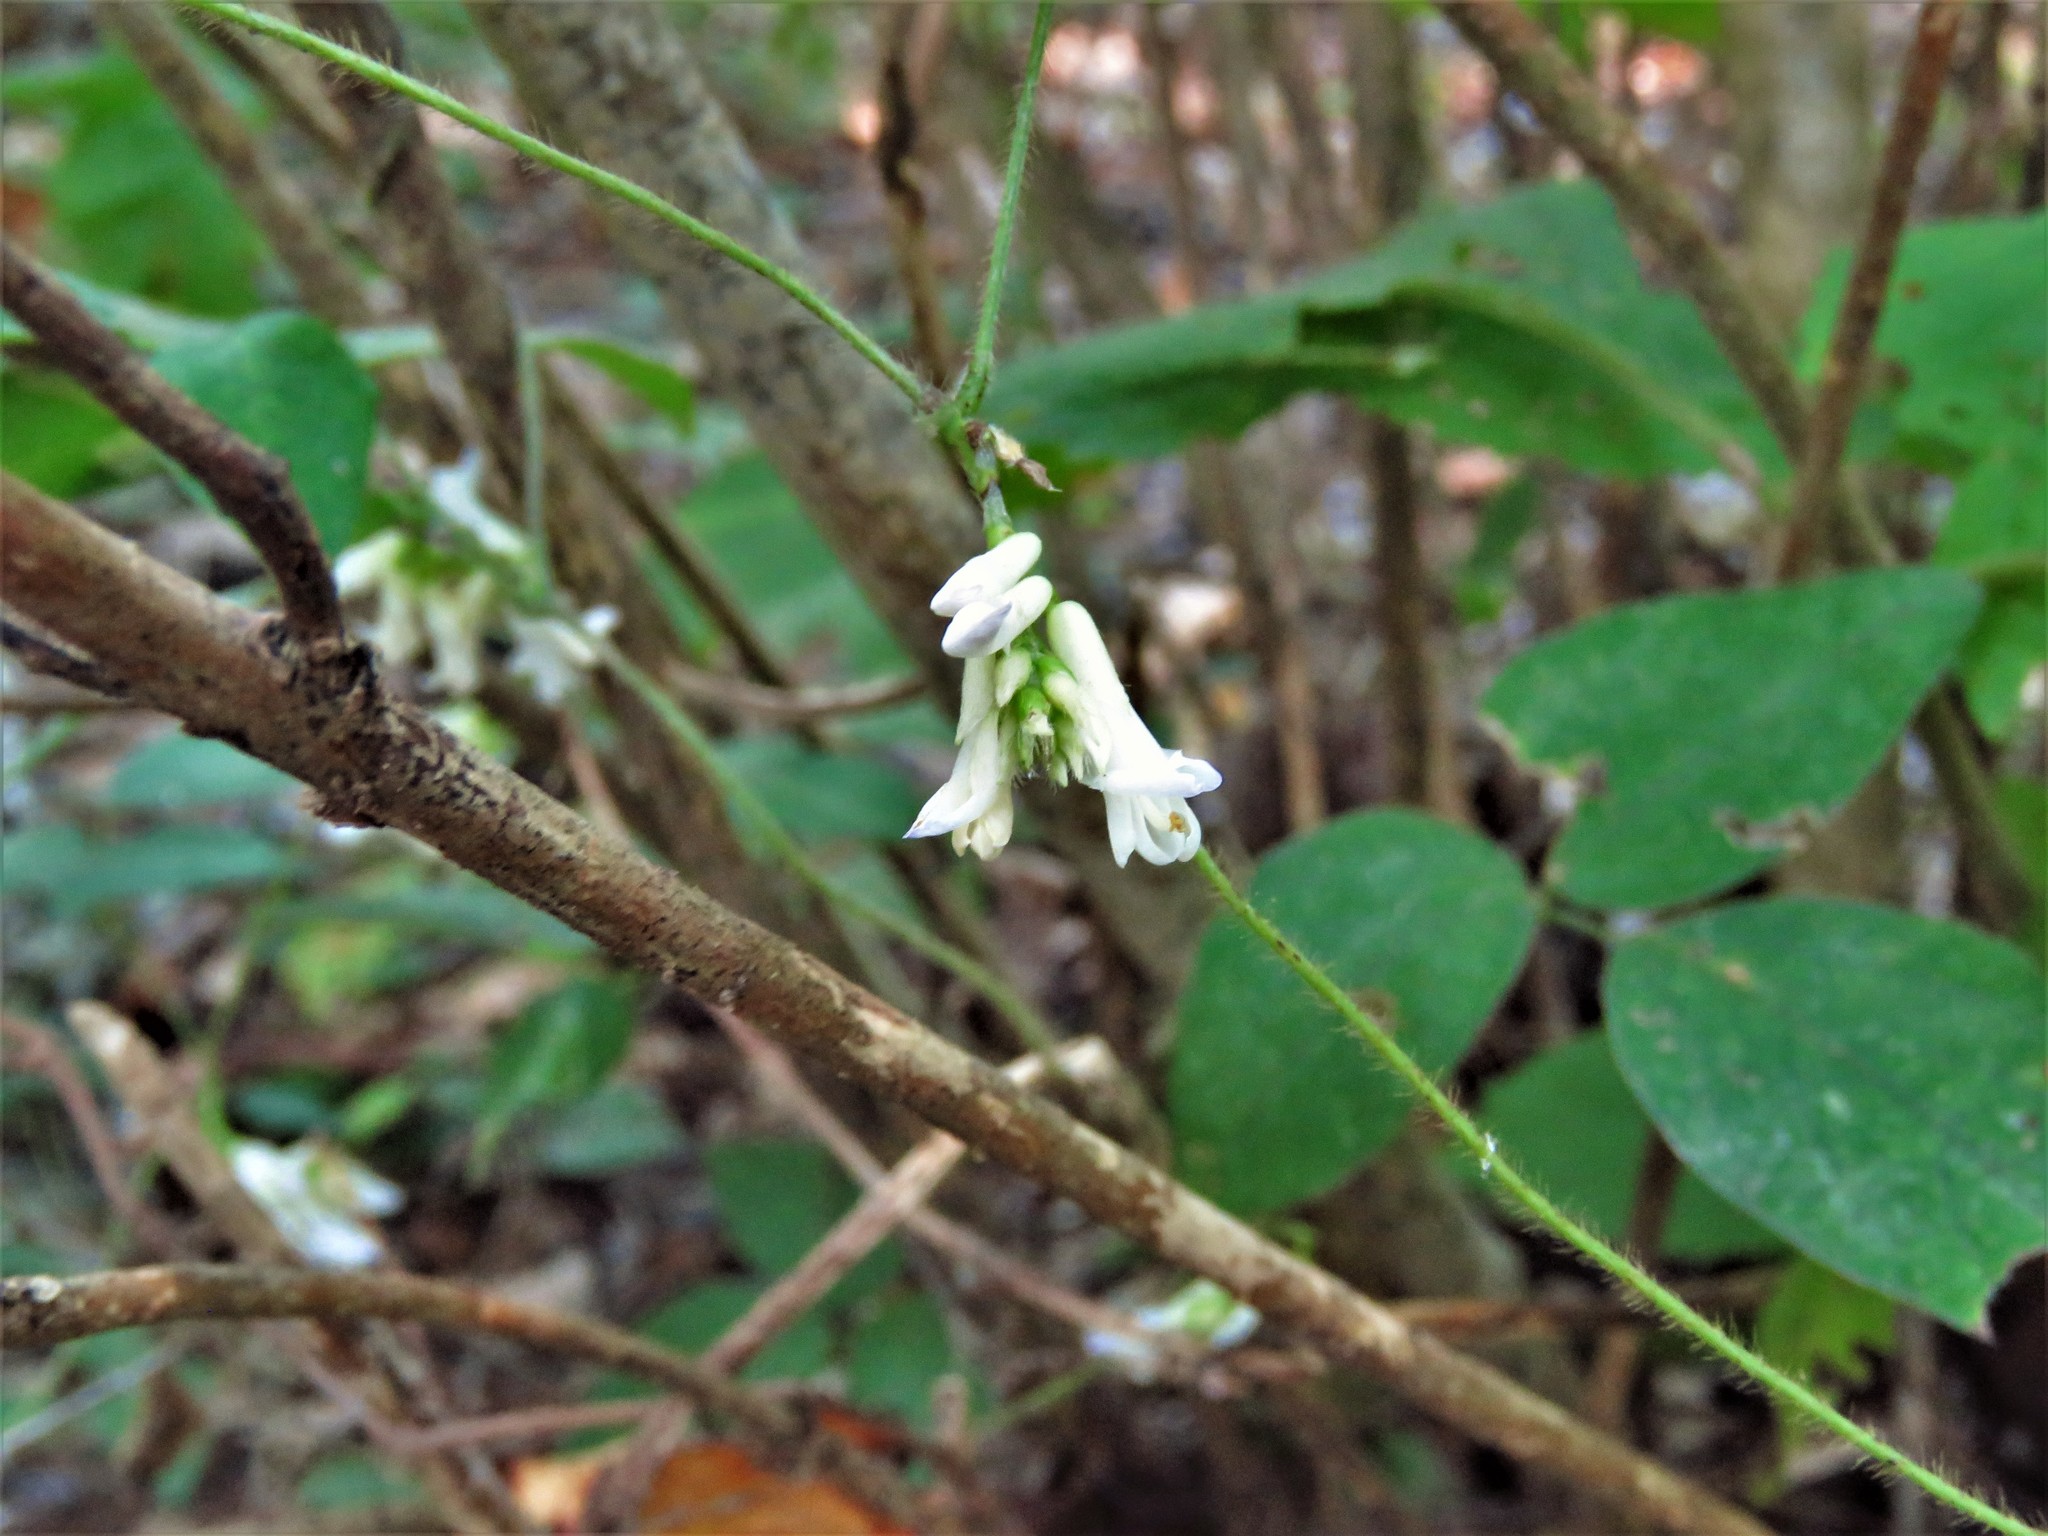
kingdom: Plantae
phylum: Tracheophyta
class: Magnoliopsida
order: Fabales
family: Fabaceae
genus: Amphicarpaea
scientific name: Amphicarpaea bracteata
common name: American hog peanut
